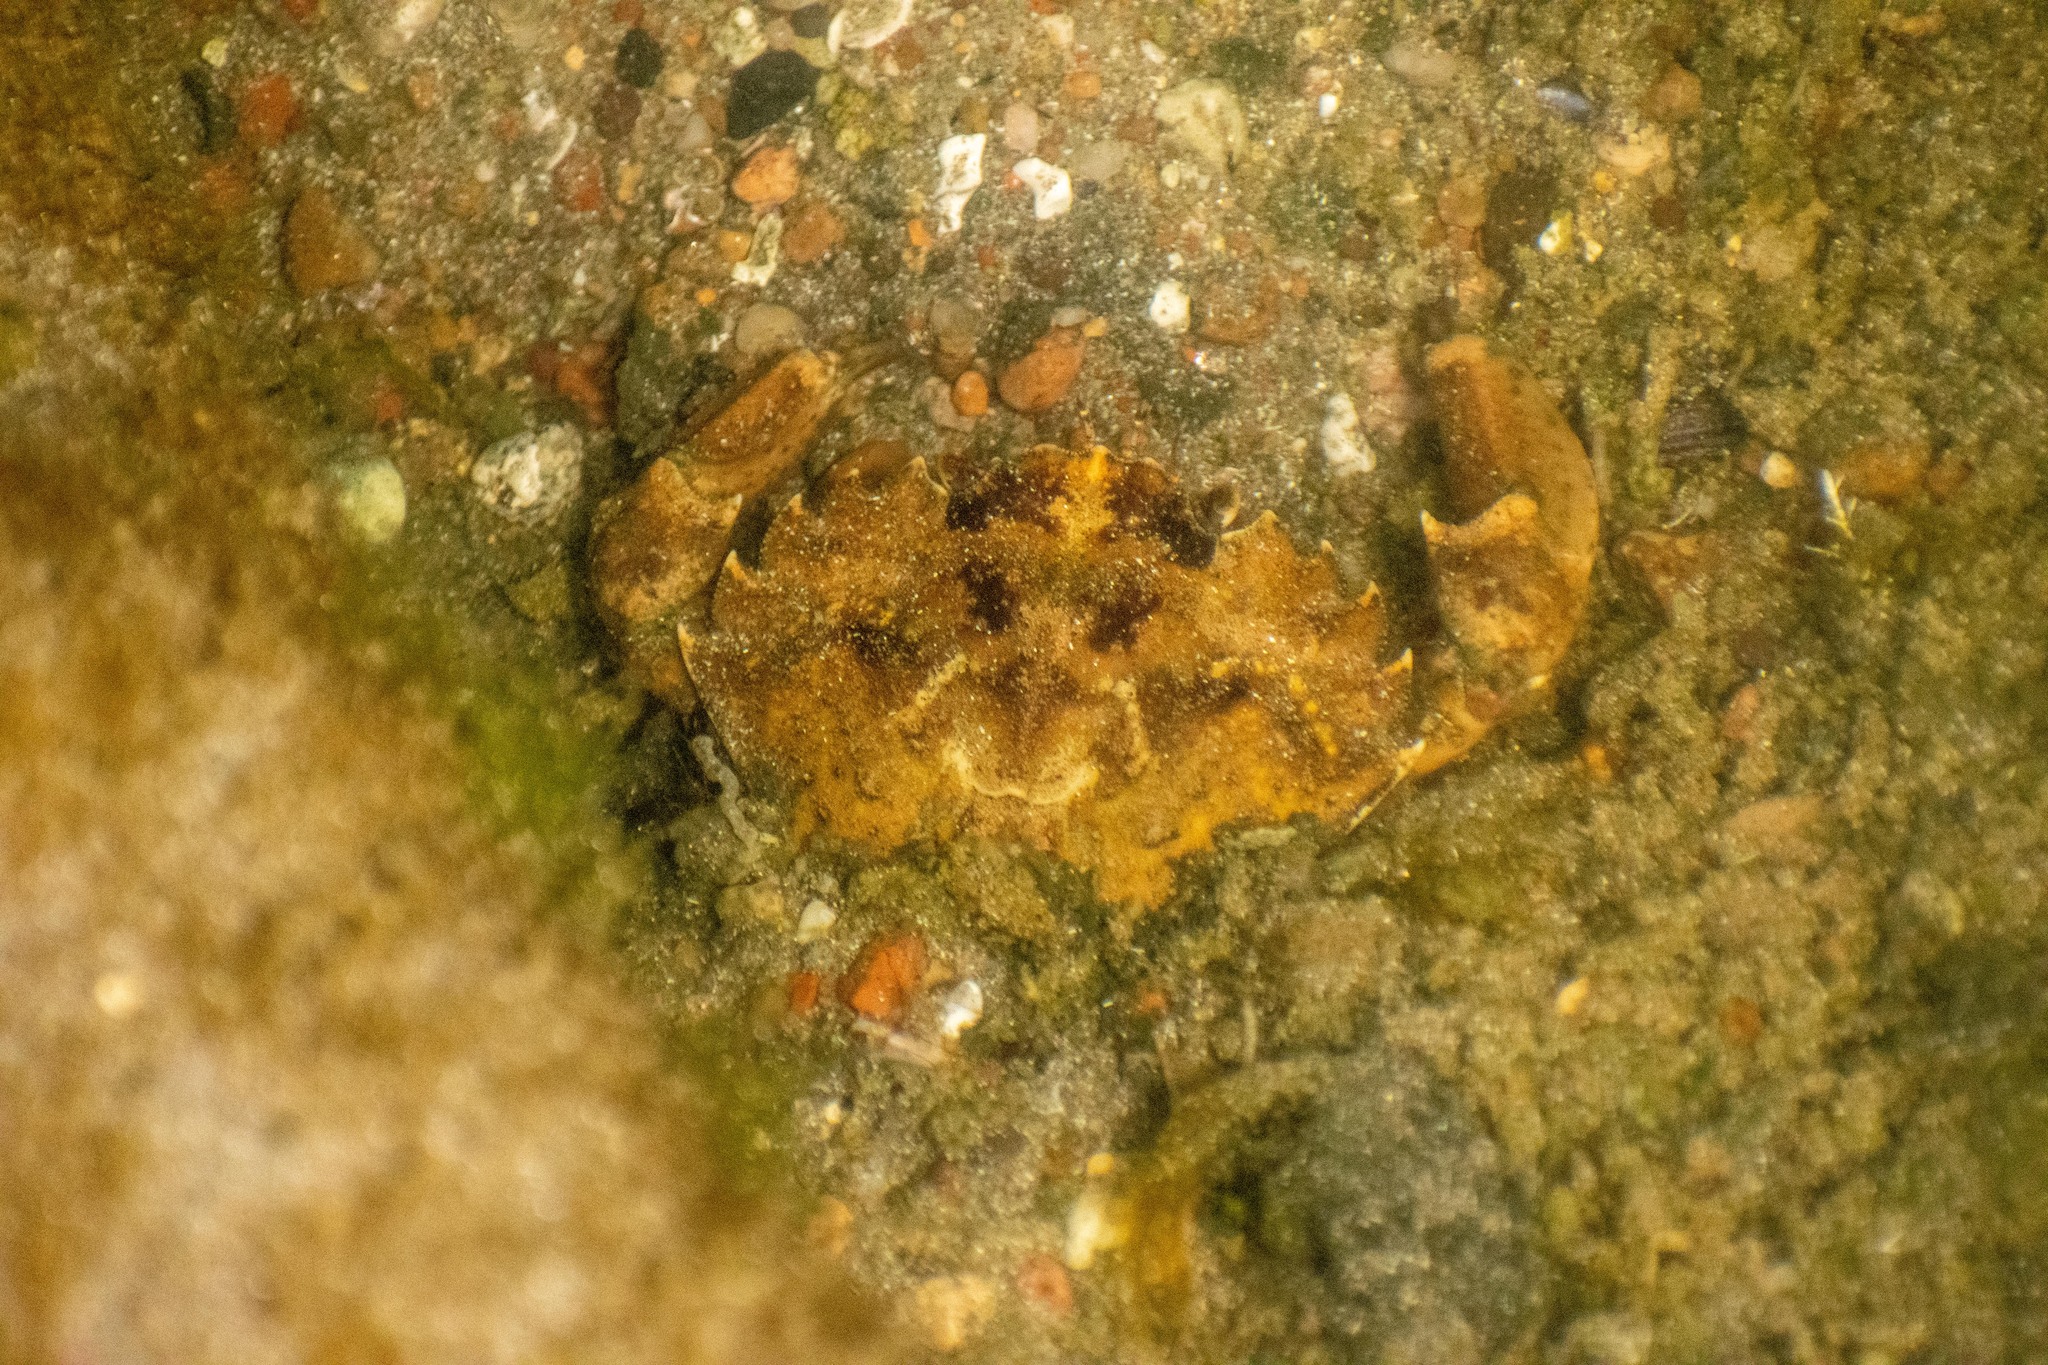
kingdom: Animalia
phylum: Arthropoda
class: Malacostraca
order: Decapoda
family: Carcinidae
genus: Carcinus
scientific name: Carcinus maenas
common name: European green crab
